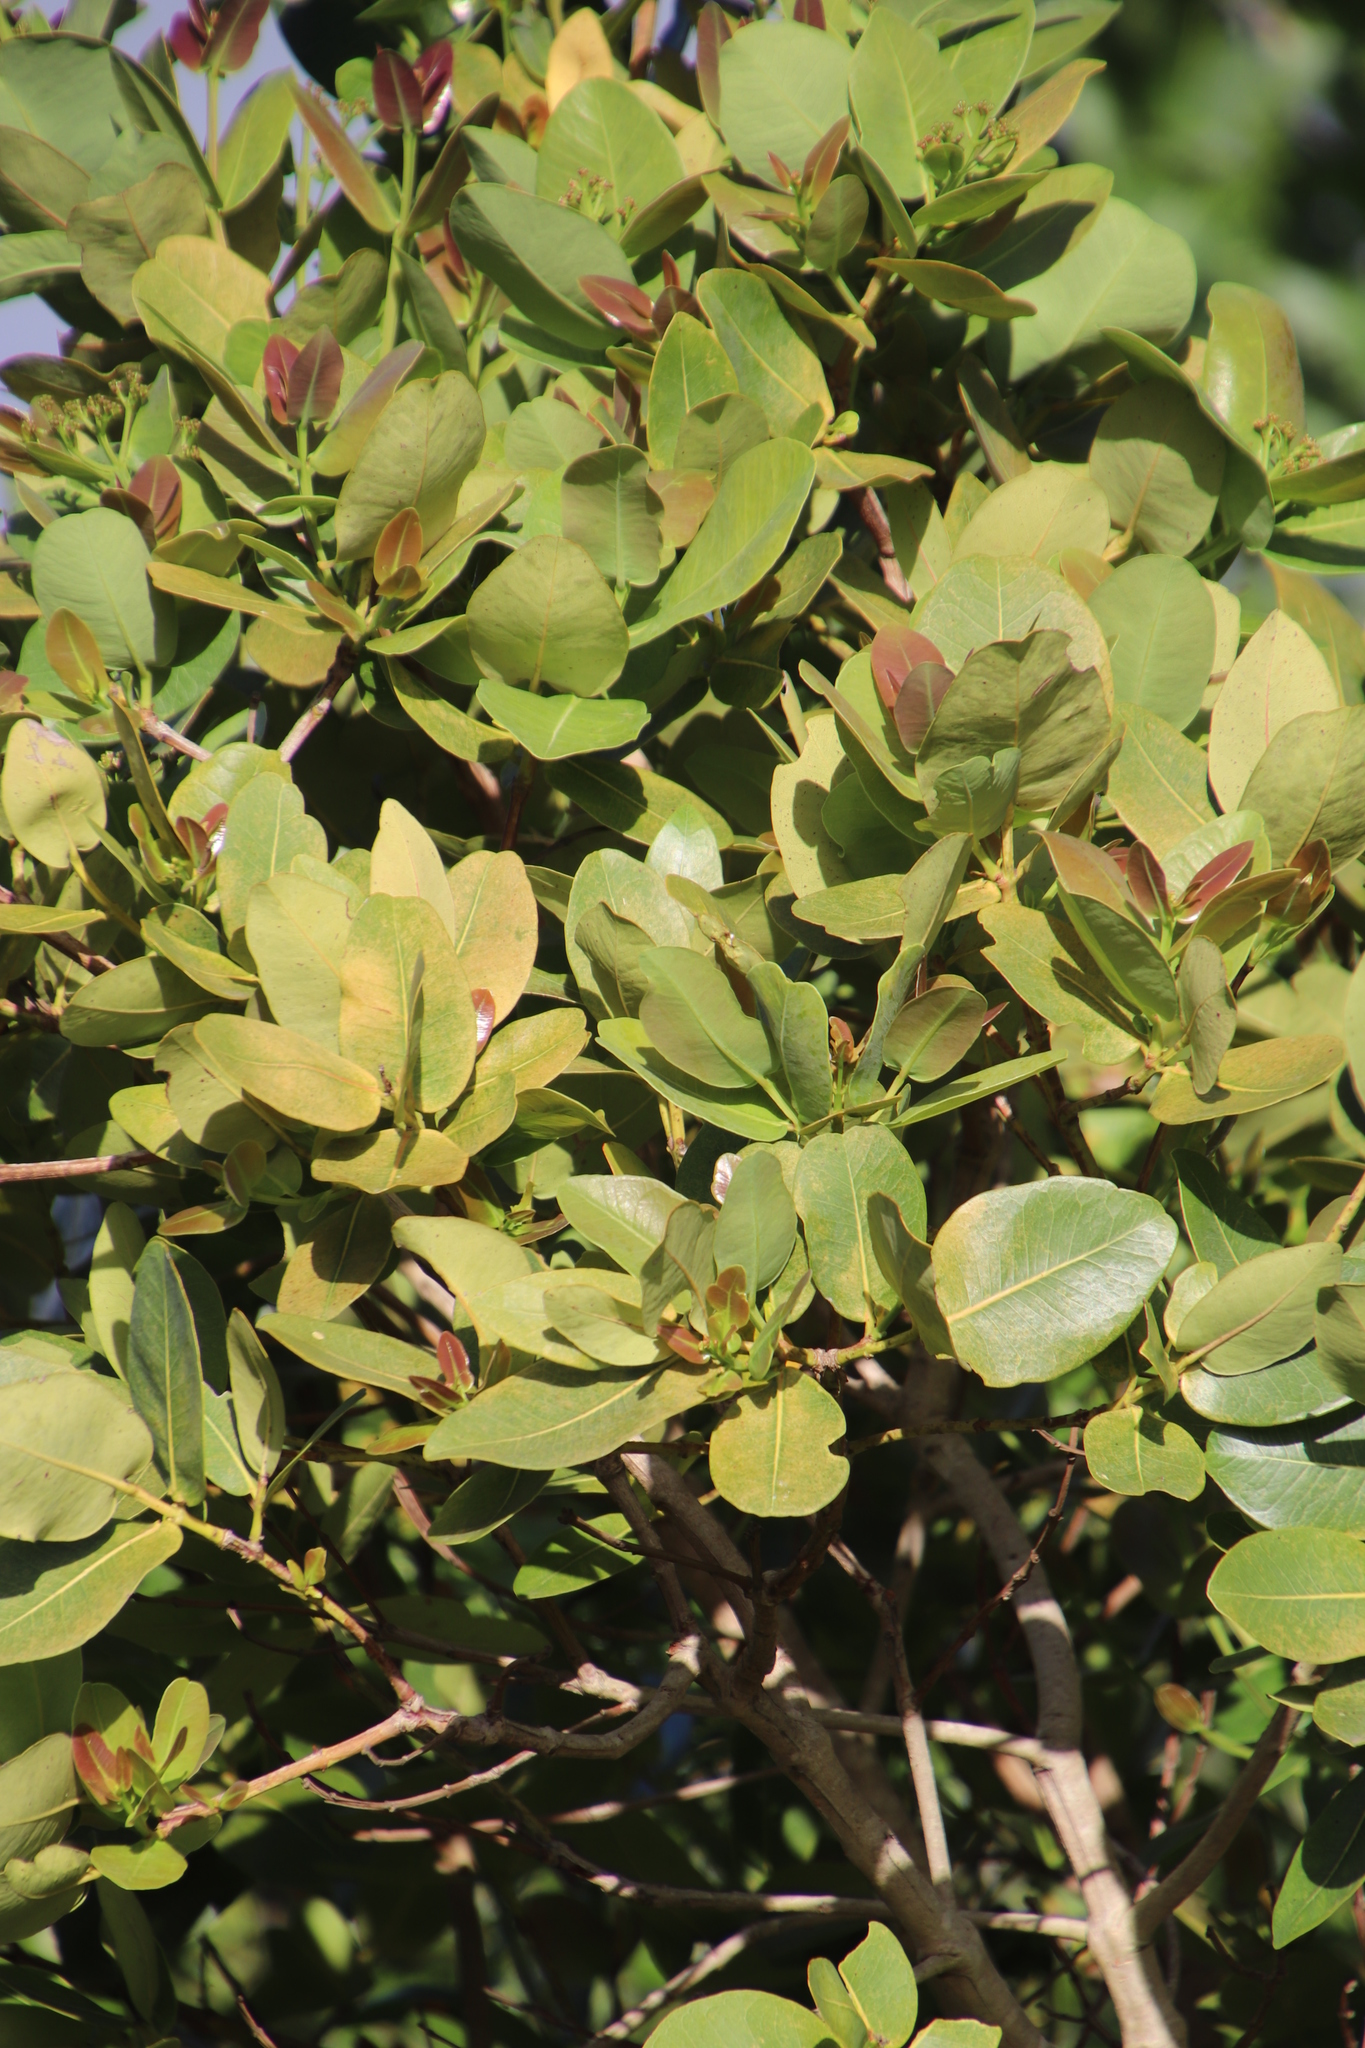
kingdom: Plantae
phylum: Tracheophyta
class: Magnoliopsida
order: Myrtales
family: Myrtaceae
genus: Syzygium
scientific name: Syzygium cordatum
